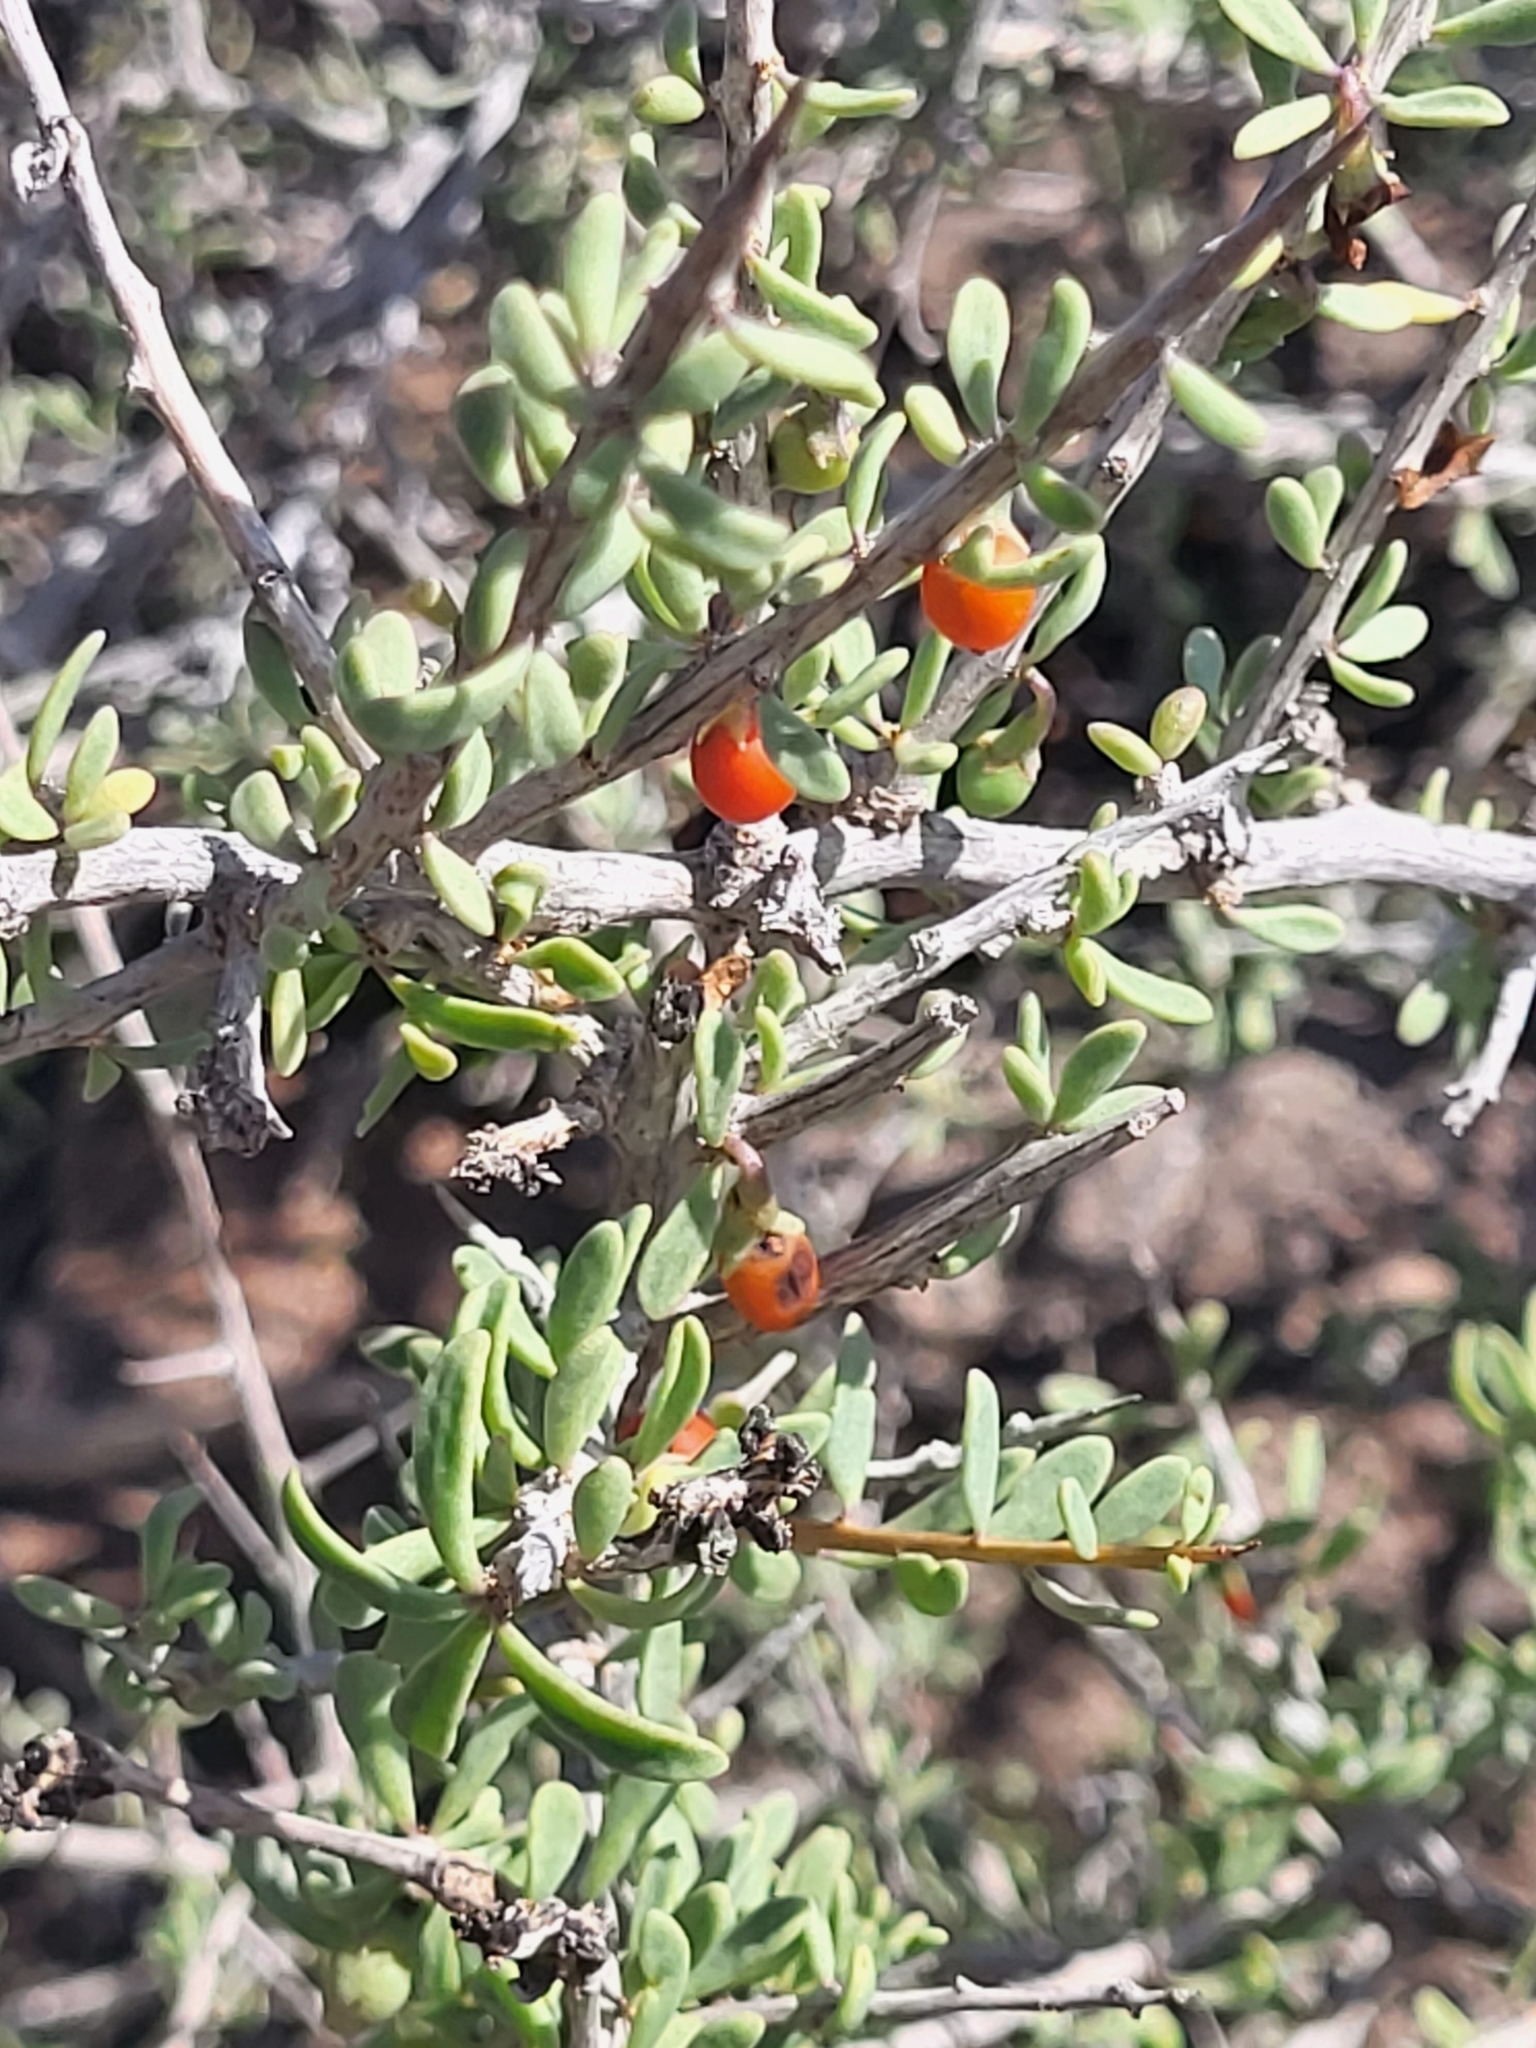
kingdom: Plantae
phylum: Tracheophyta
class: Magnoliopsida
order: Solanales
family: Solanaceae
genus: Lycium
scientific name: Lycium intricatum
